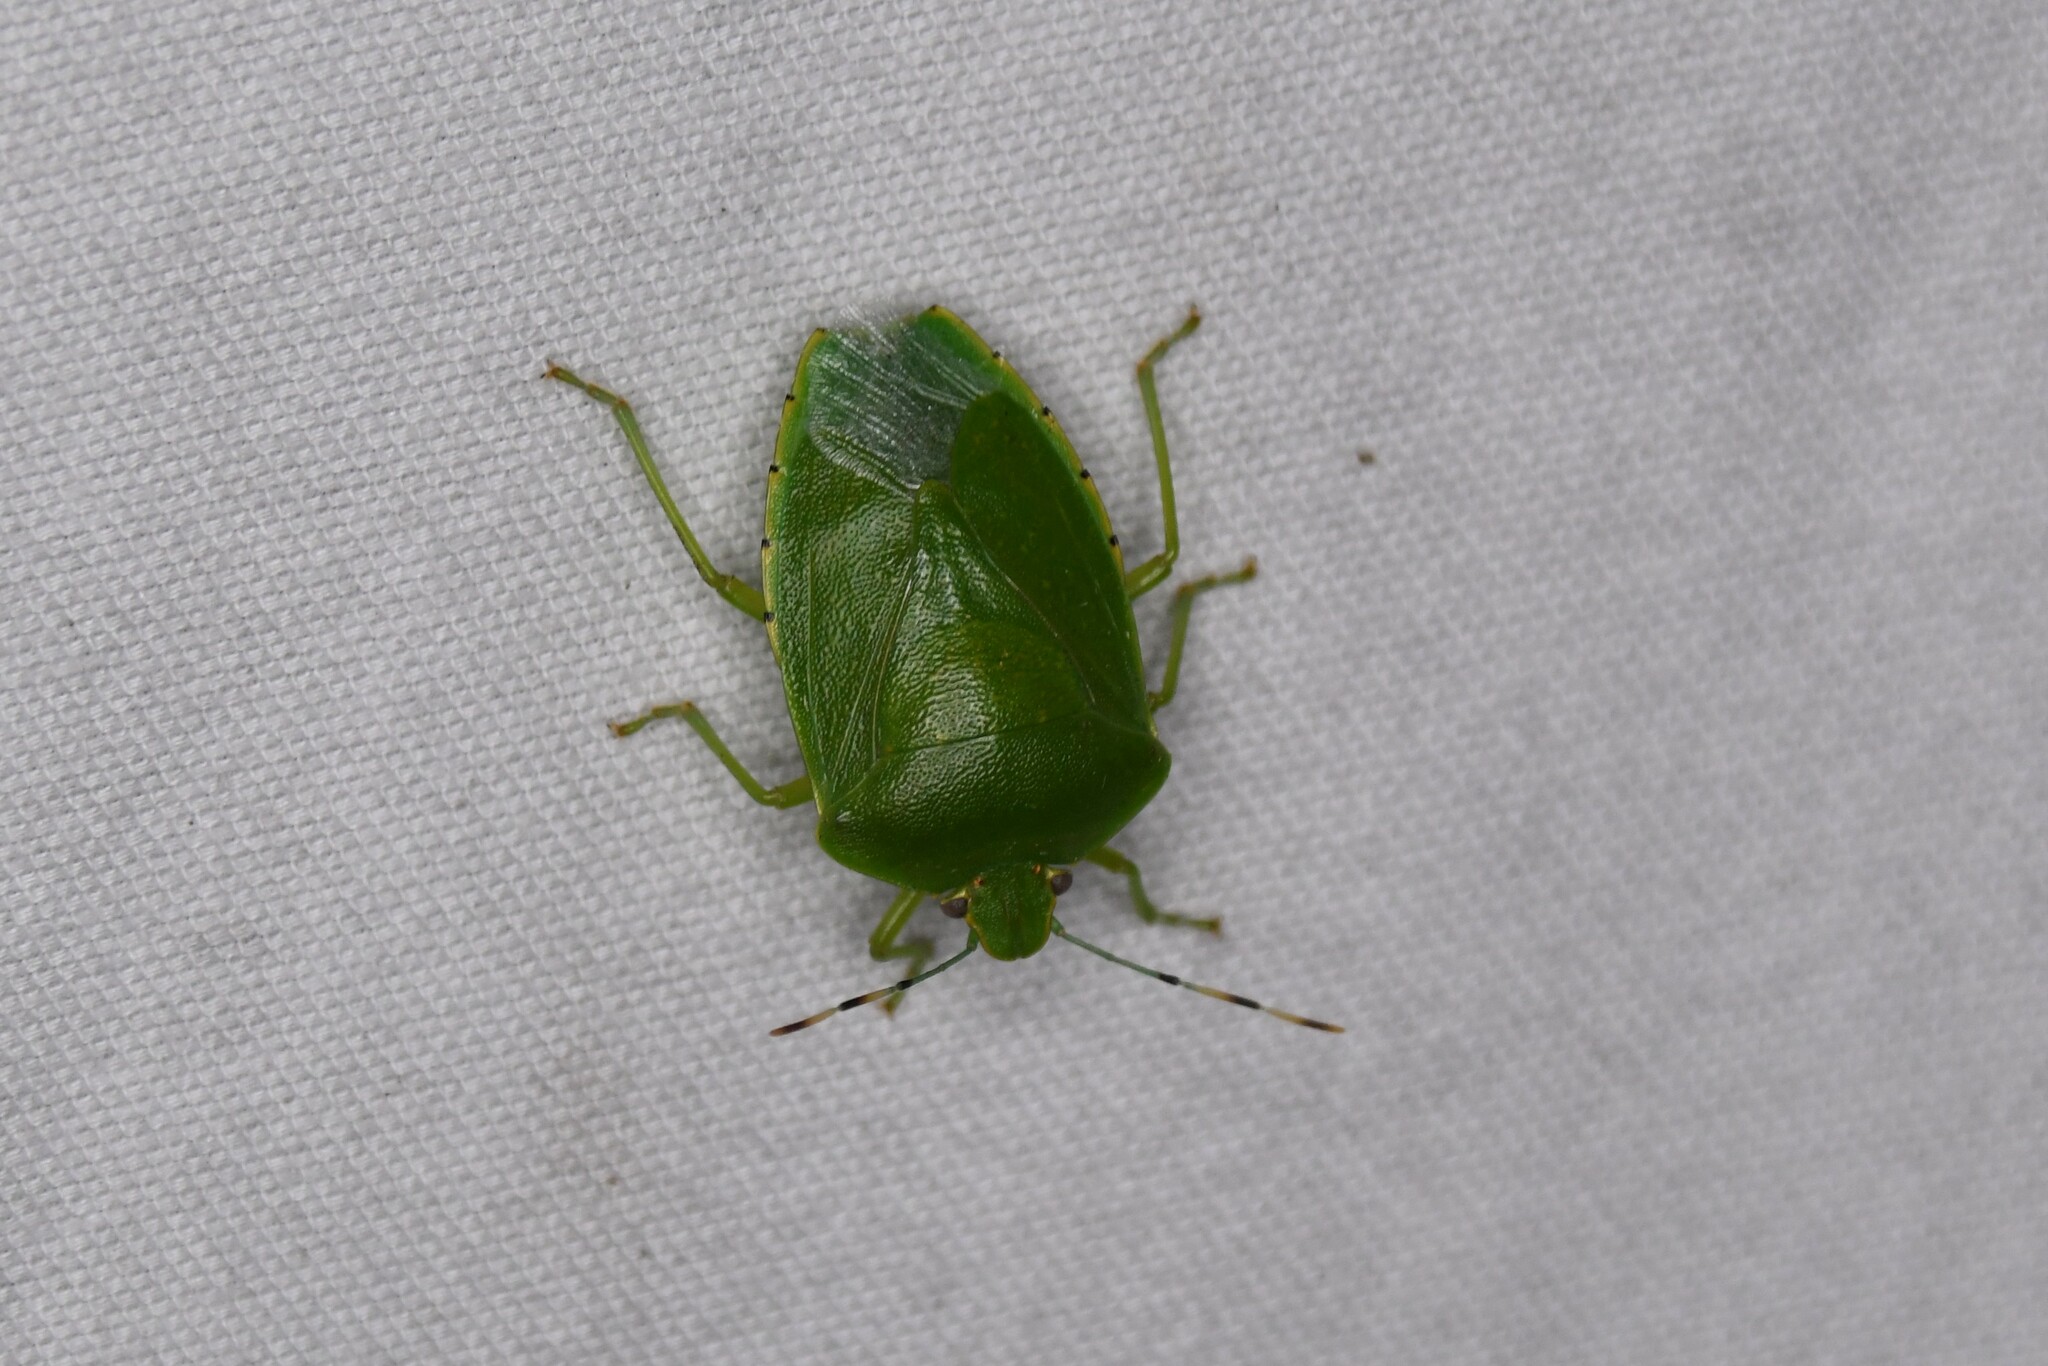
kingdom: Animalia
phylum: Arthropoda
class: Insecta
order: Hemiptera
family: Pentatomidae
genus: Chinavia
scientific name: Chinavia hilaris
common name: Green stink bug
